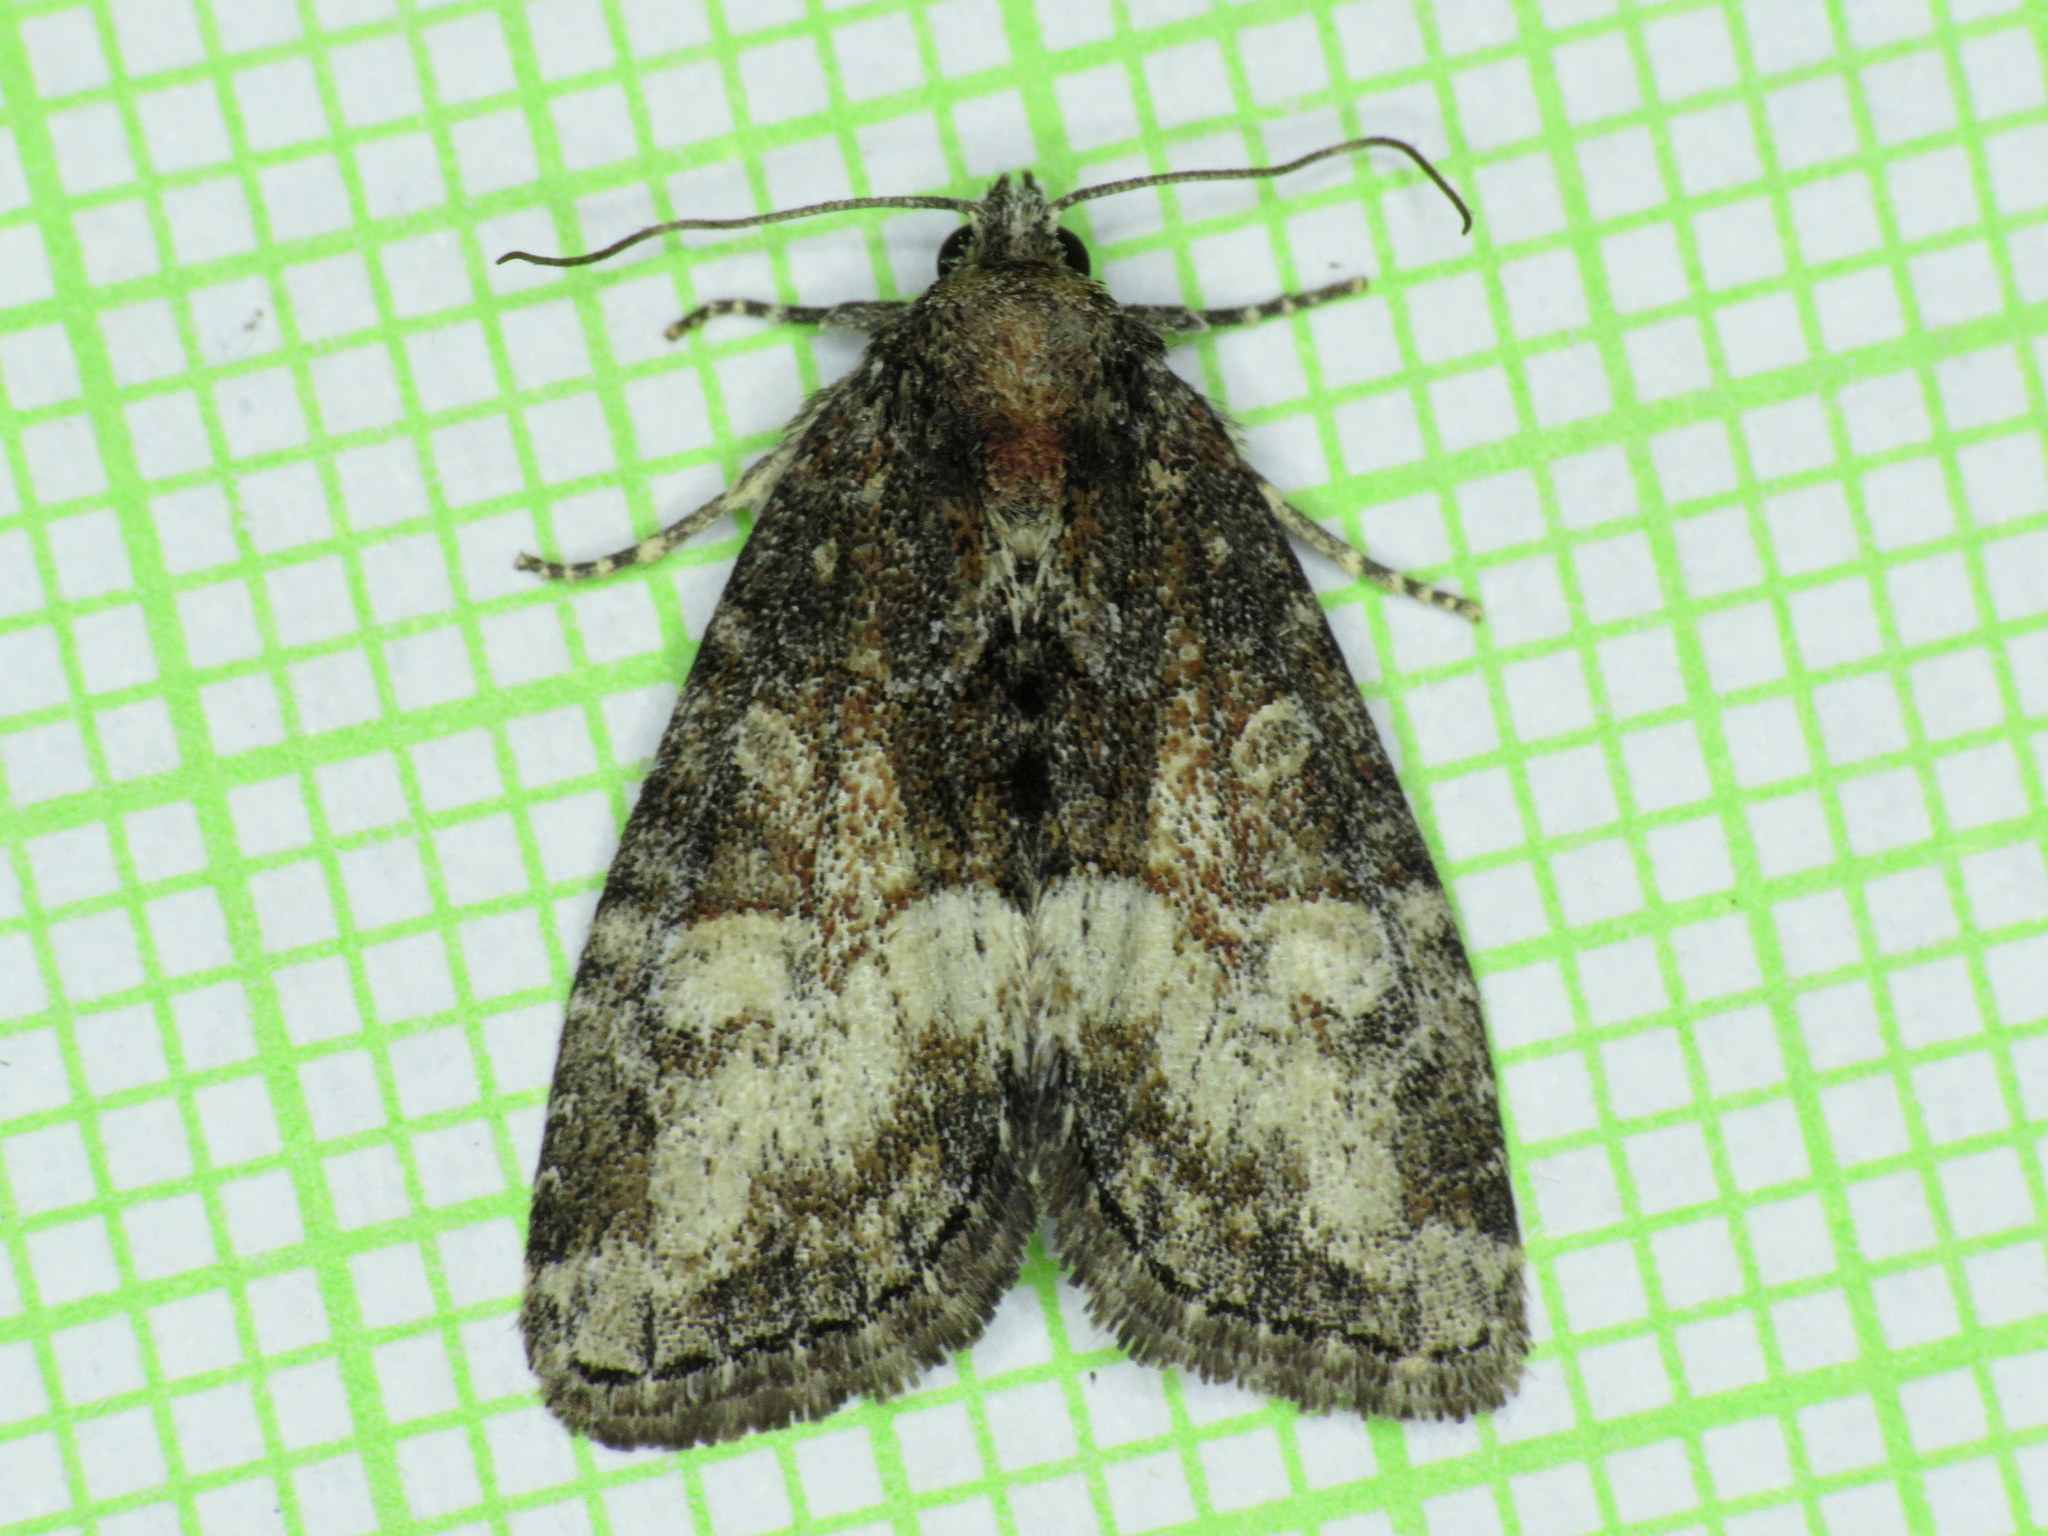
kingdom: Animalia
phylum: Arthropoda
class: Insecta
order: Lepidoptera
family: Noctuidae
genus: Neoligia
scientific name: Neoligia subjuncta
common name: Connected brocade
